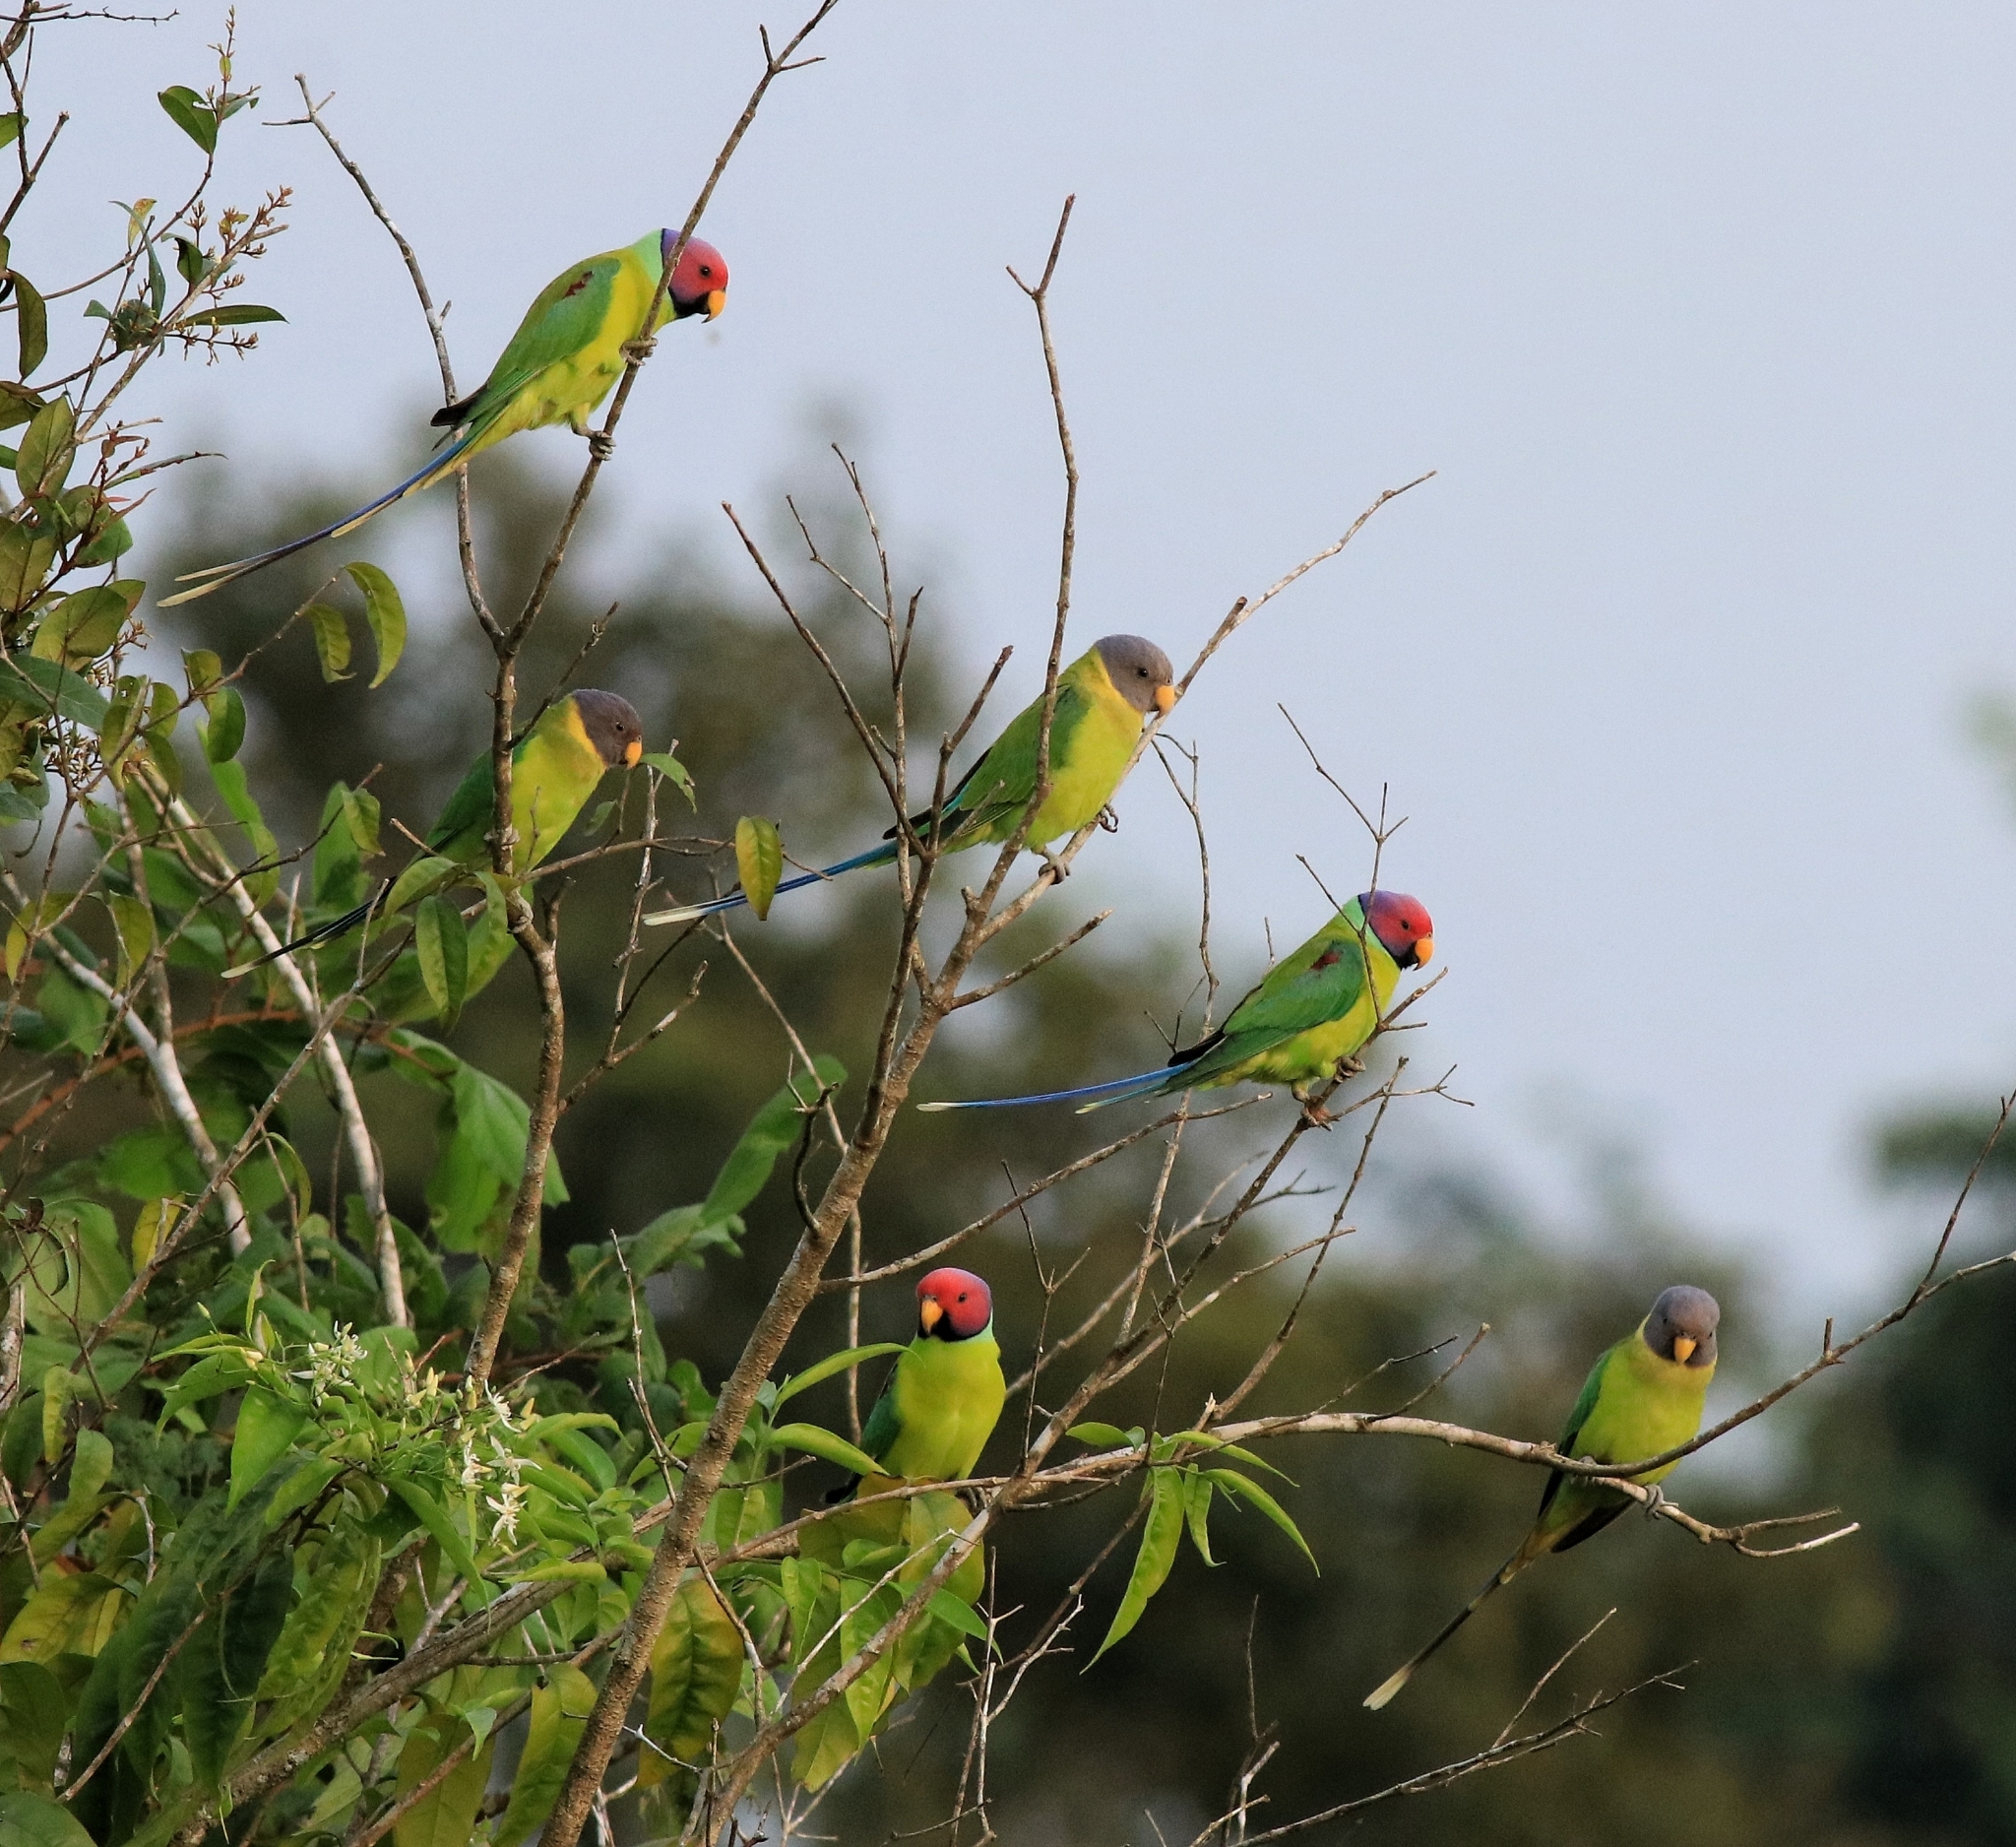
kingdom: Animalia
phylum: Chordata
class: Aves
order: Psittaciformes
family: Psittacidae
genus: Psittacula
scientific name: Psittacula cyanocephala
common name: Plum-headed parakeet
